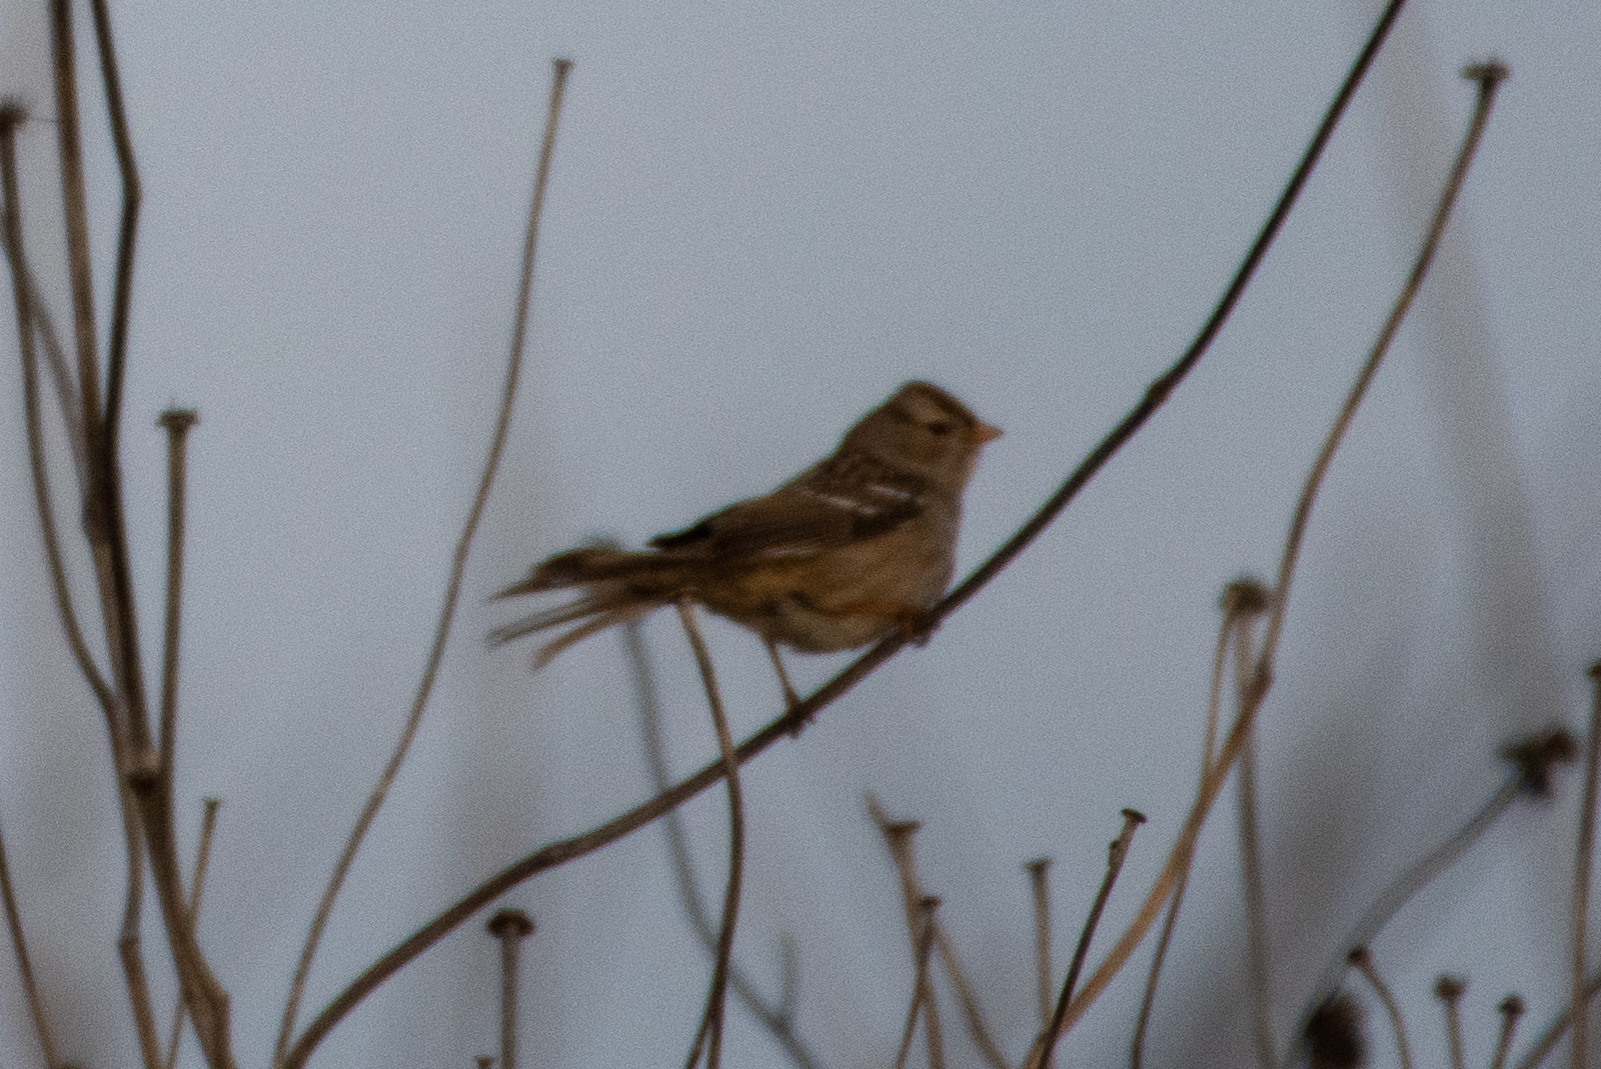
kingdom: Animalia
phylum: Chordata
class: Aves
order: Passeriformes
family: Passerellidae
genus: Zonotrichia
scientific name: Zonotrichia leucophrys
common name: White-crowned sparrow
